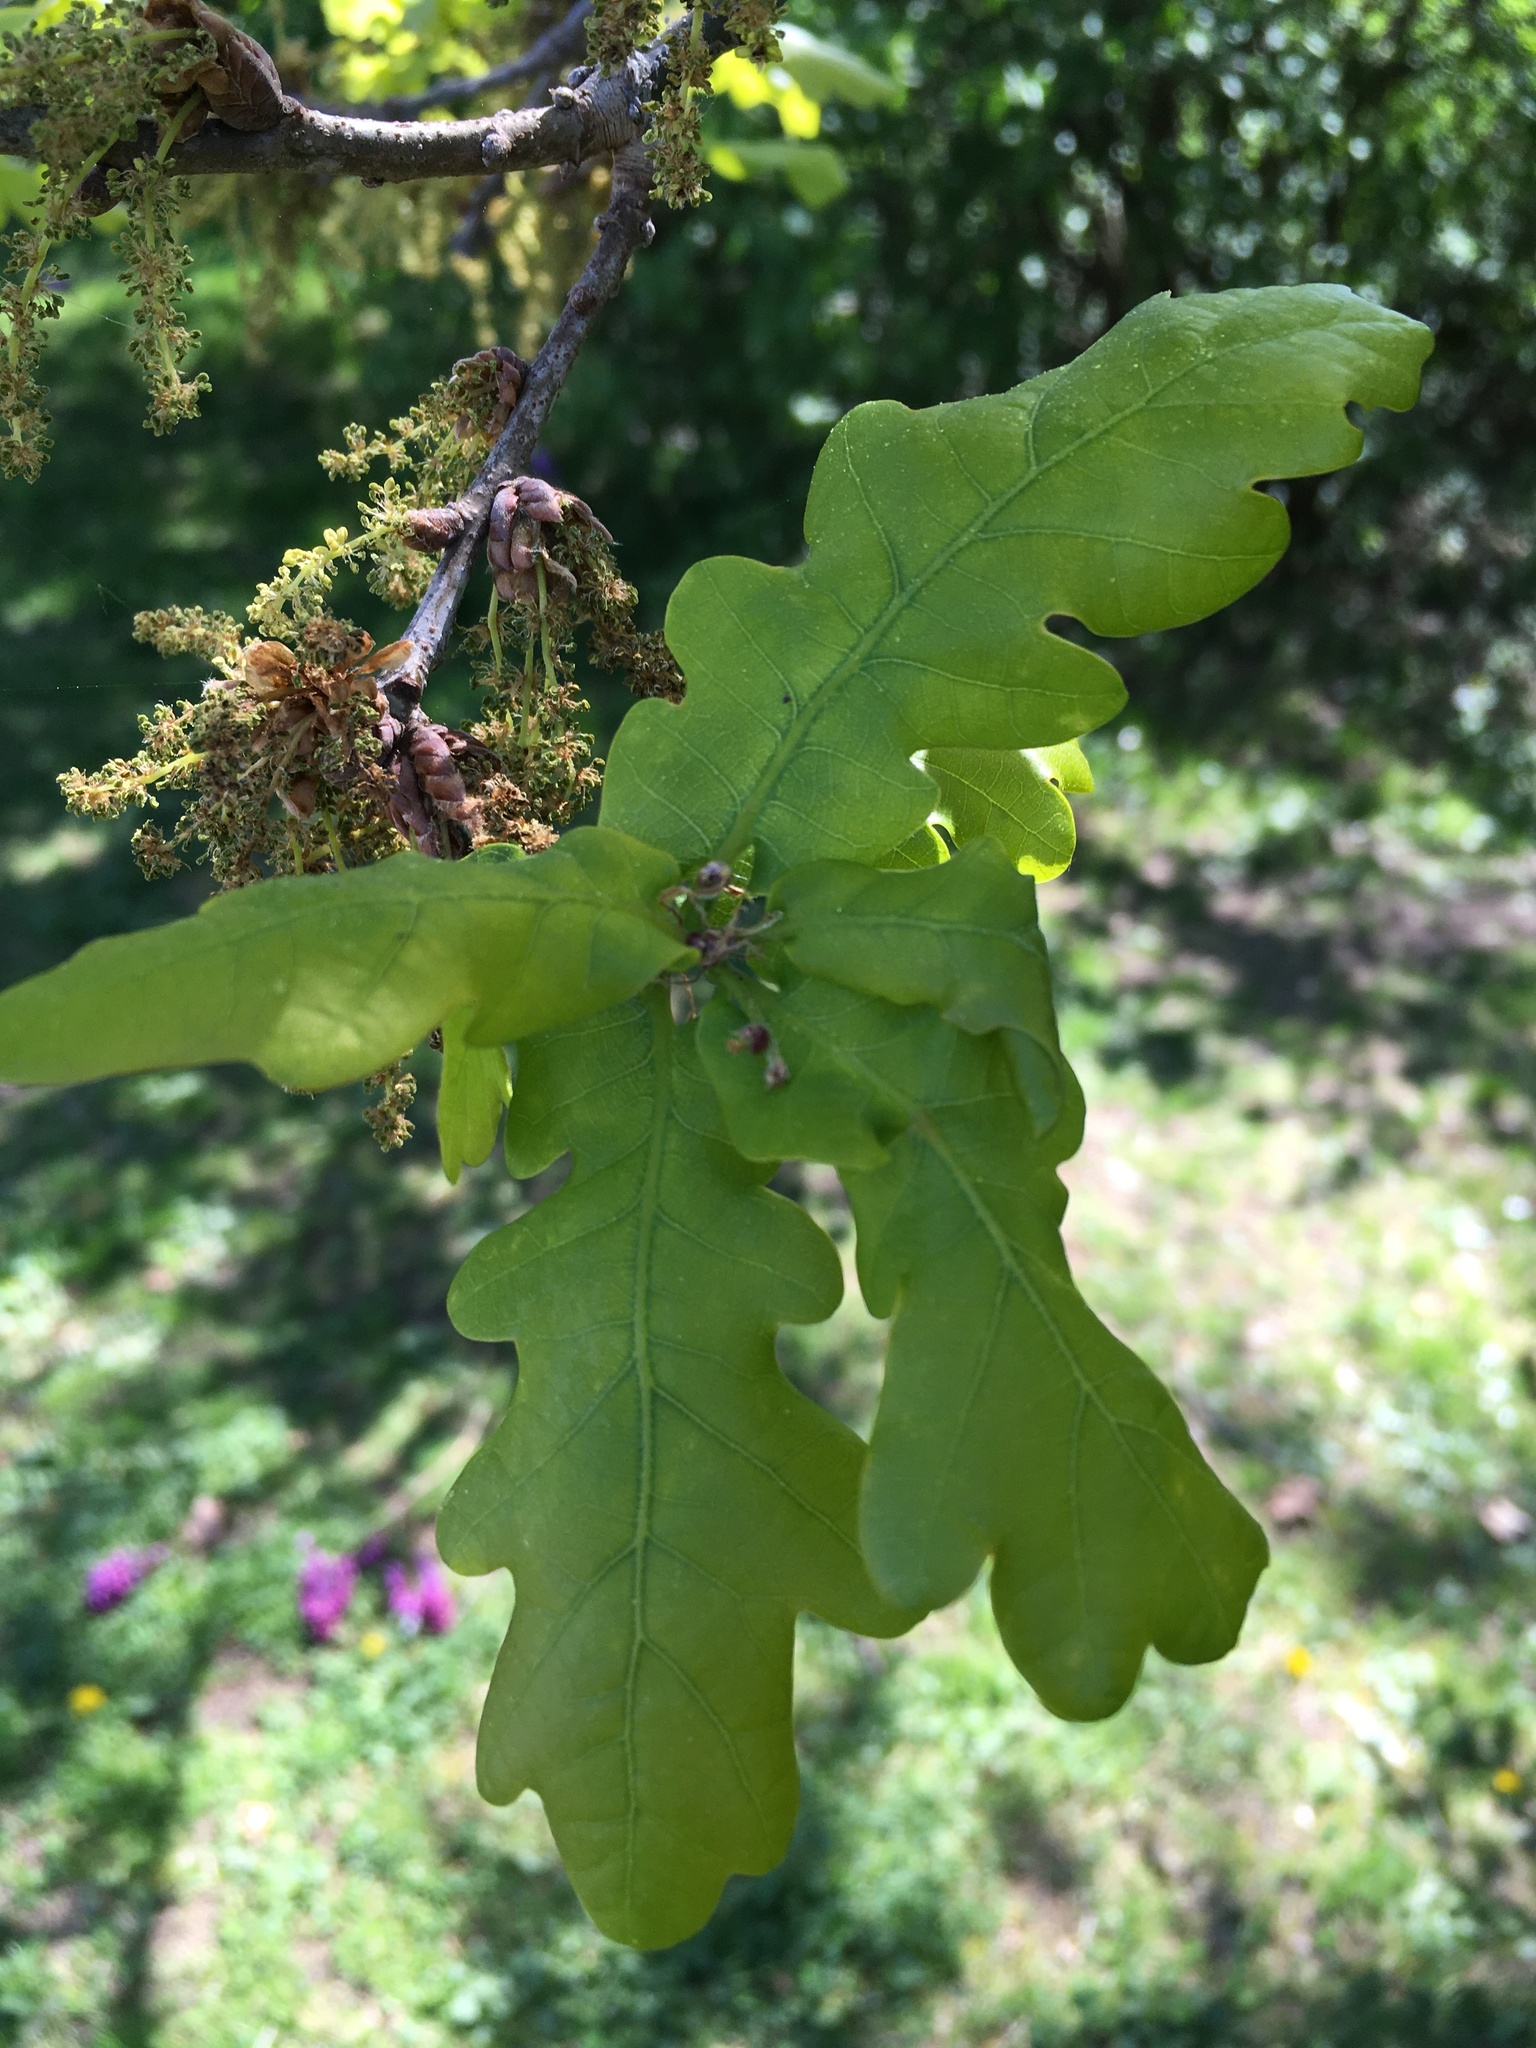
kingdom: Plantae
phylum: Tracheophyta
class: Magnoliopsida
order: Fagales
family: Fagaceae
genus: Quercus
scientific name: Quercus robur
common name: Pedunculate oak
